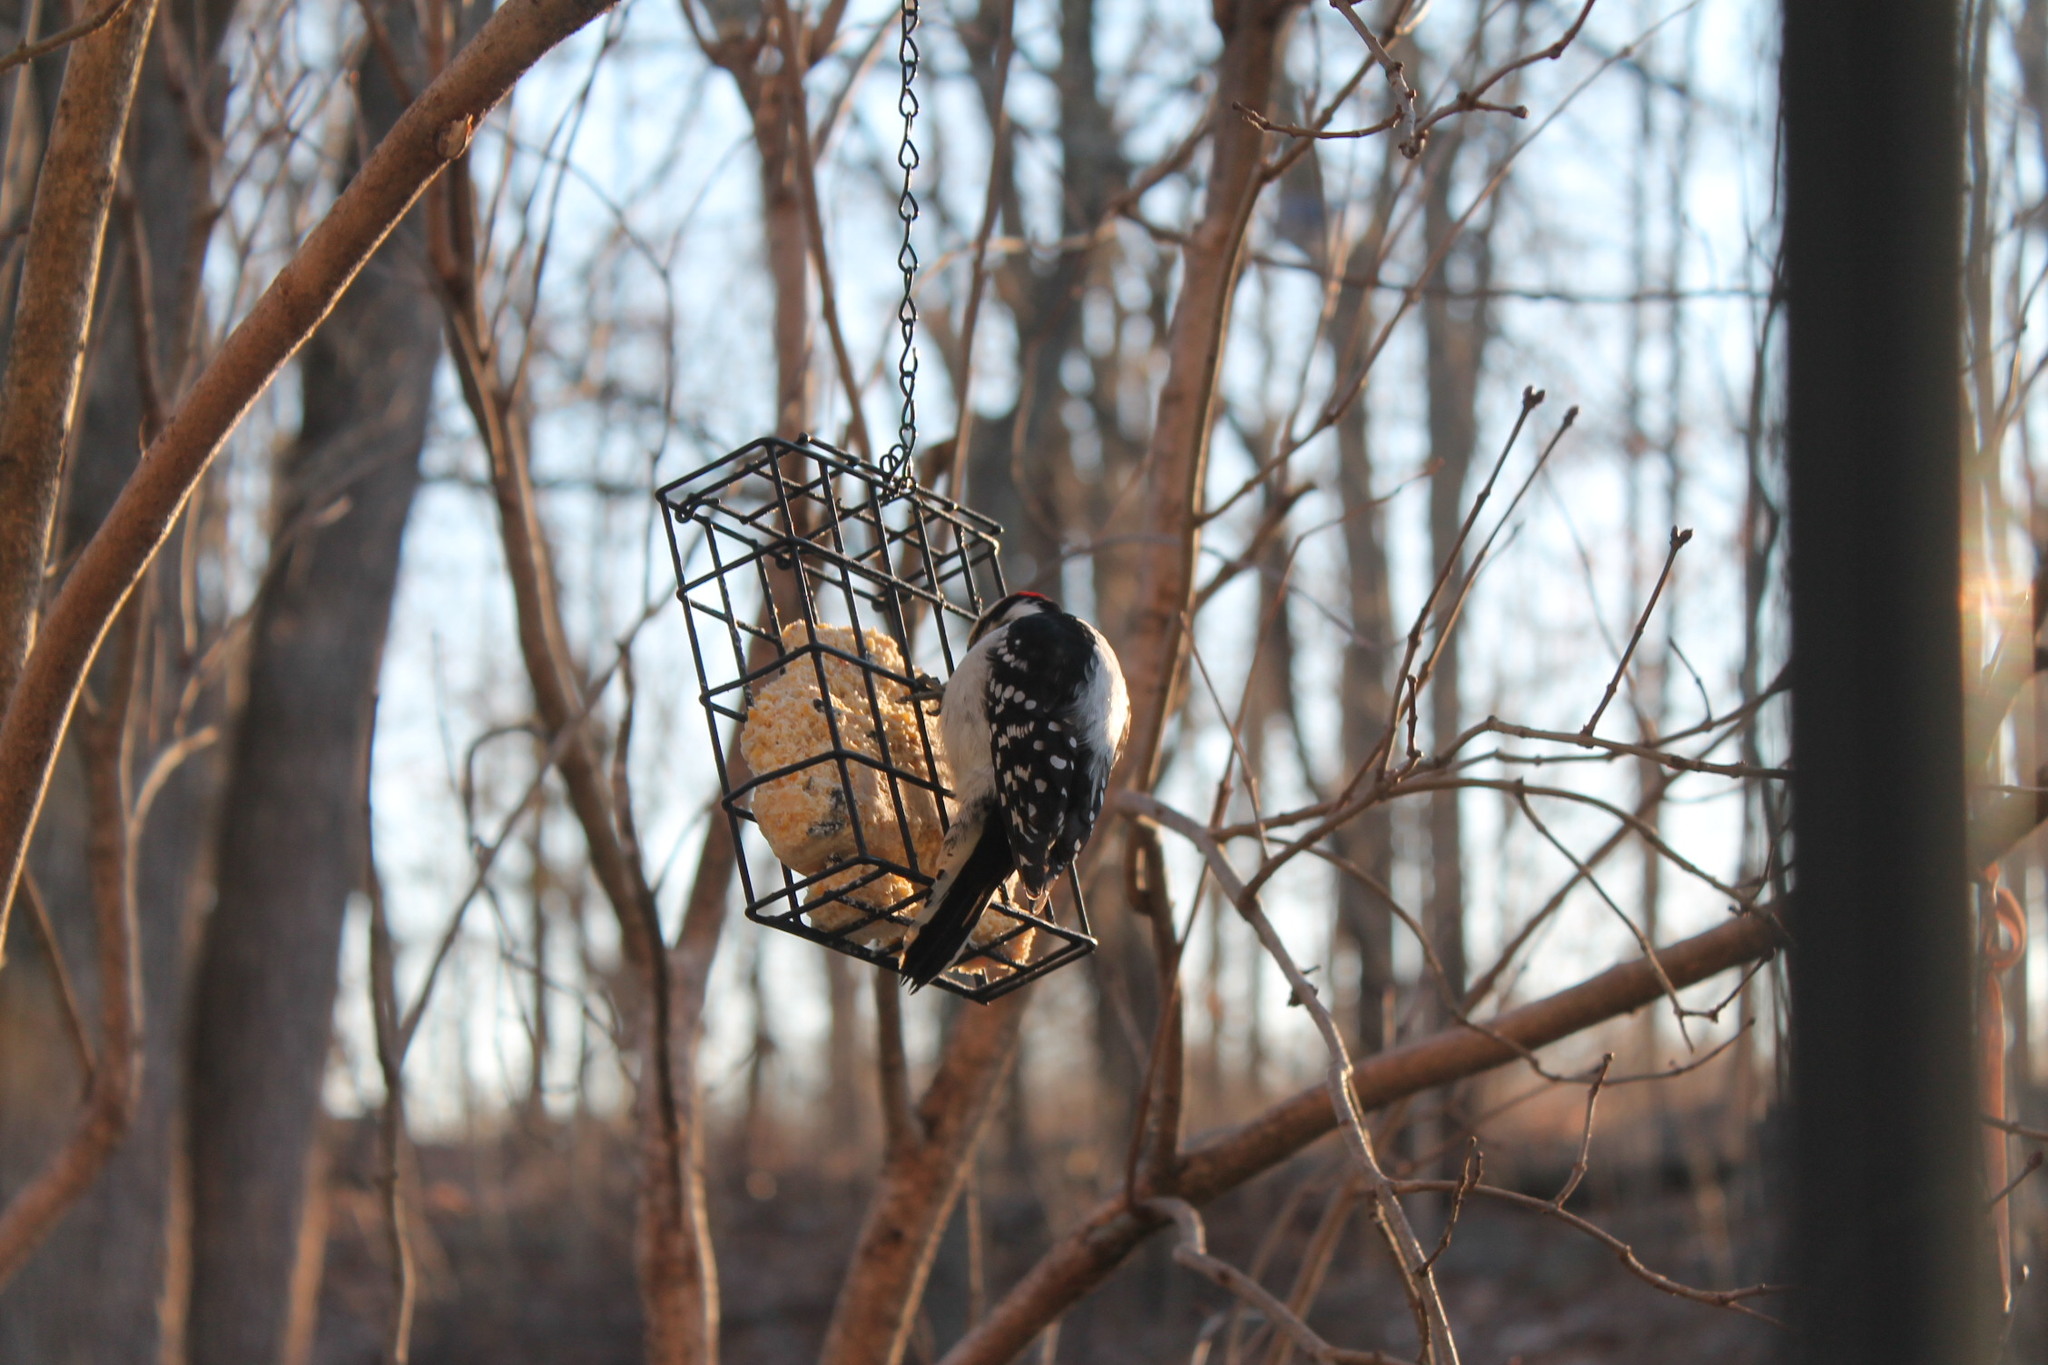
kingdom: Animalia
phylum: Chordata
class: Aves
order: Piciformes
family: Picidae
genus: Dryobates
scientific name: Dryobates pubescens
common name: Downy woodpecker
